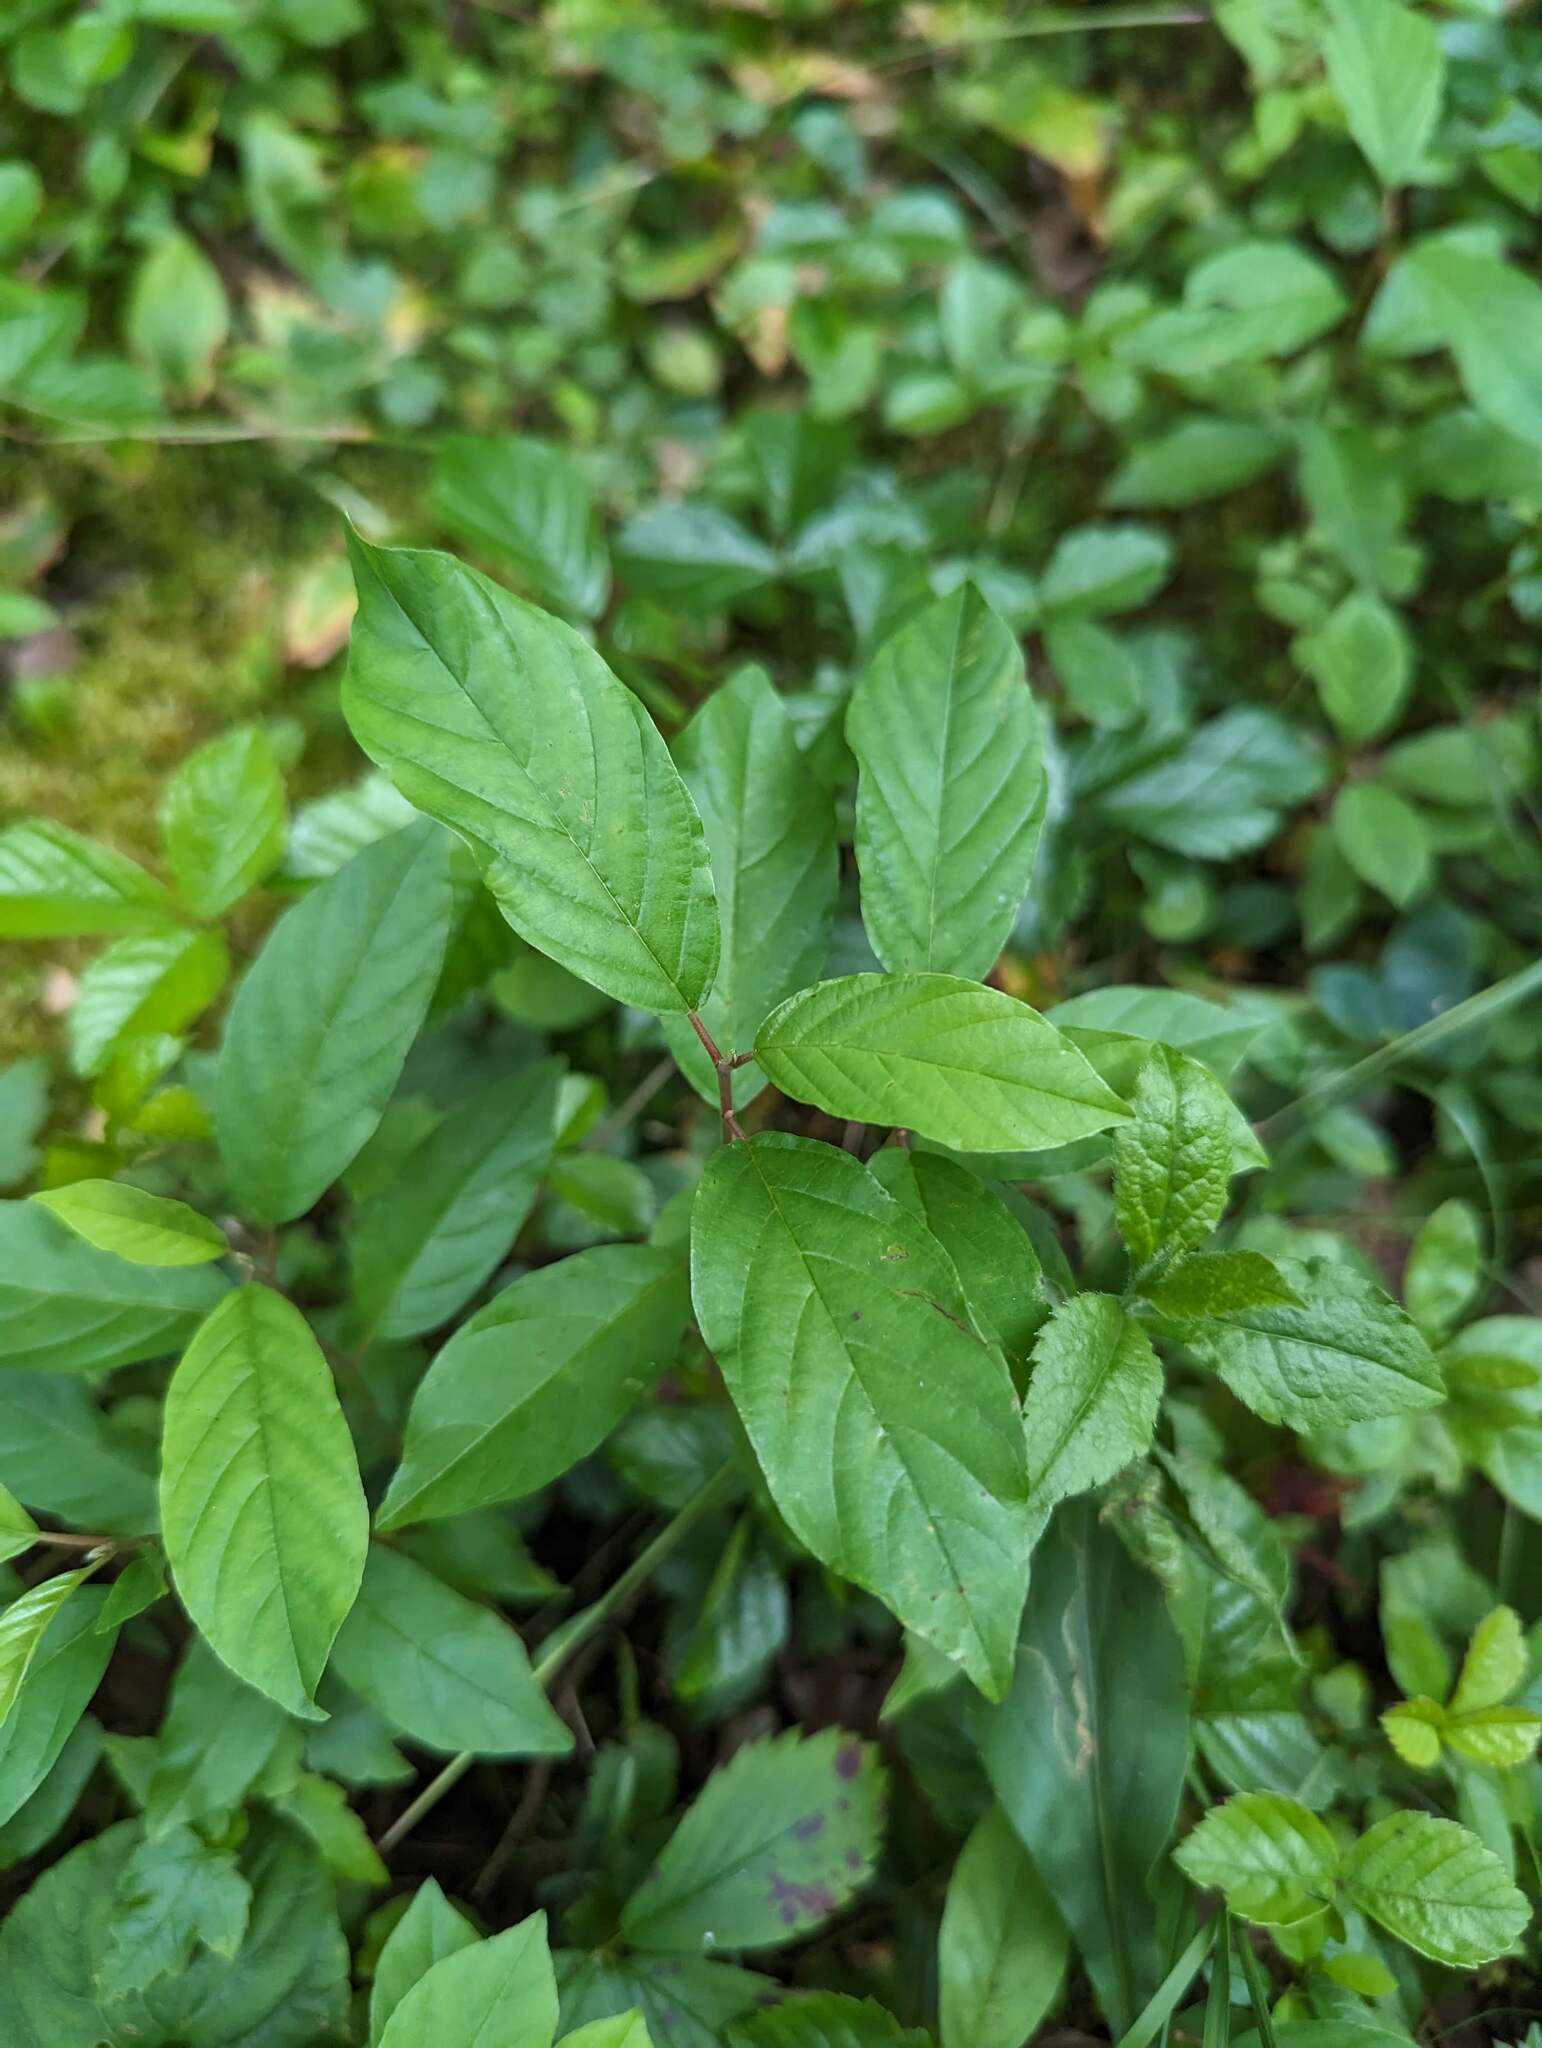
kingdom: Plantae
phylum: Tracheophyta
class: Magnoliopsida
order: Rosales
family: Rhamnaceae
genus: Frangula
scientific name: Frangula alnus
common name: Alder buckthorn
